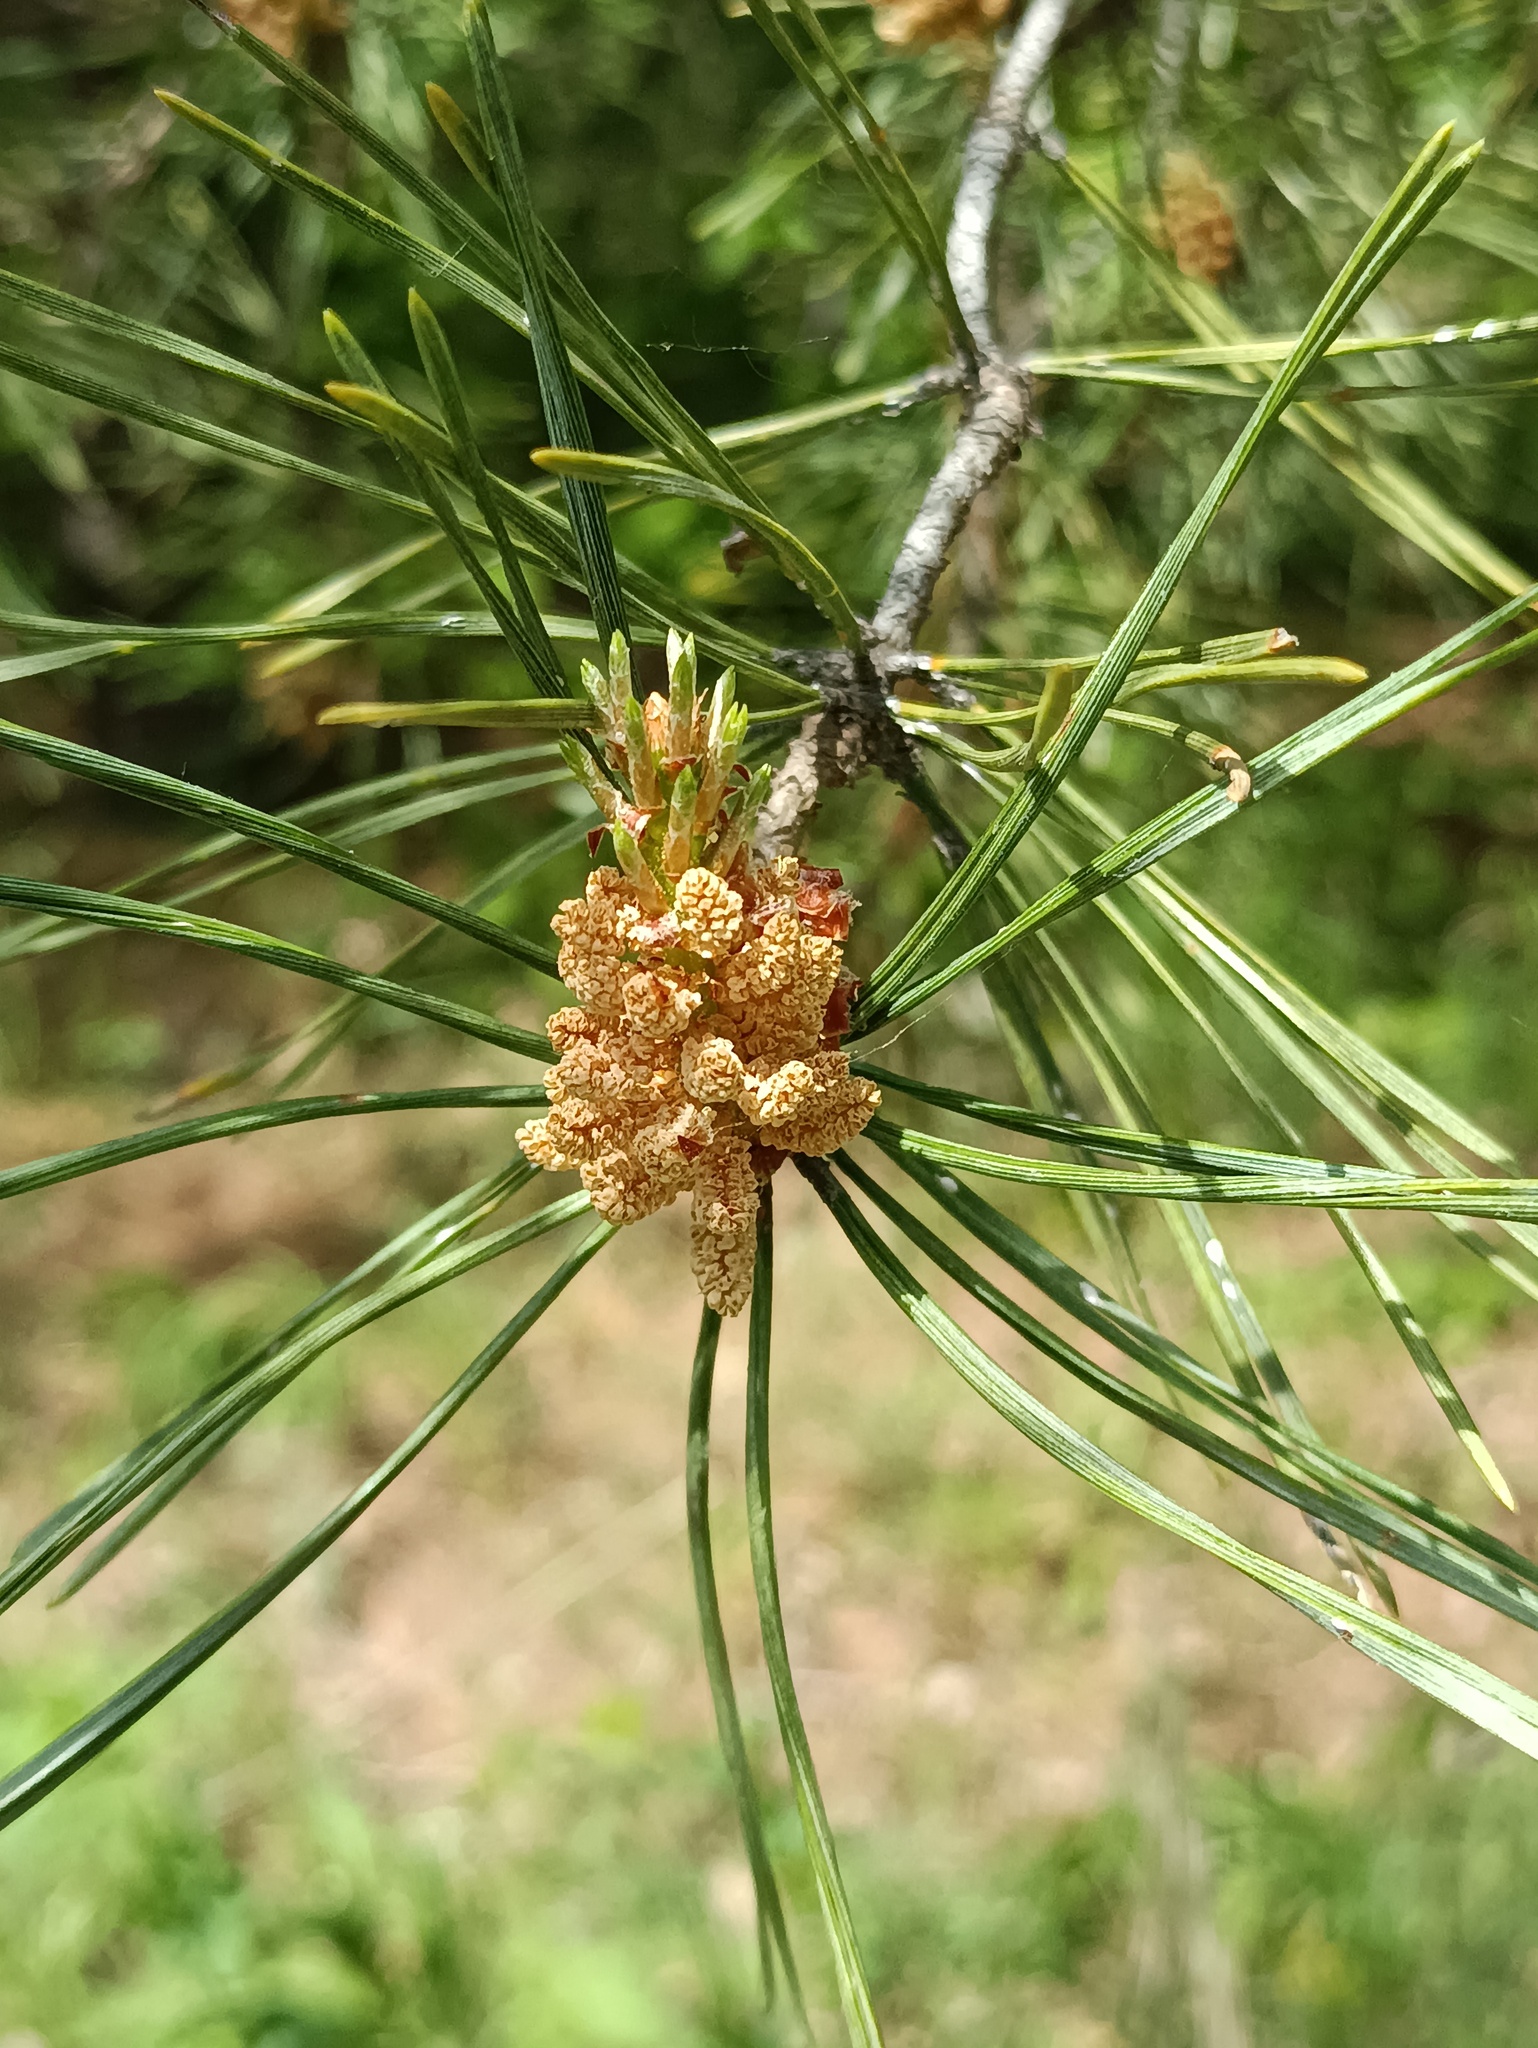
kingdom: Plantae
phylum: Tracheophyta
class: Pinopsida
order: Pinales
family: Pinaceae
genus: Pinus
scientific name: Pinus sylvestris
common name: Scots pine
